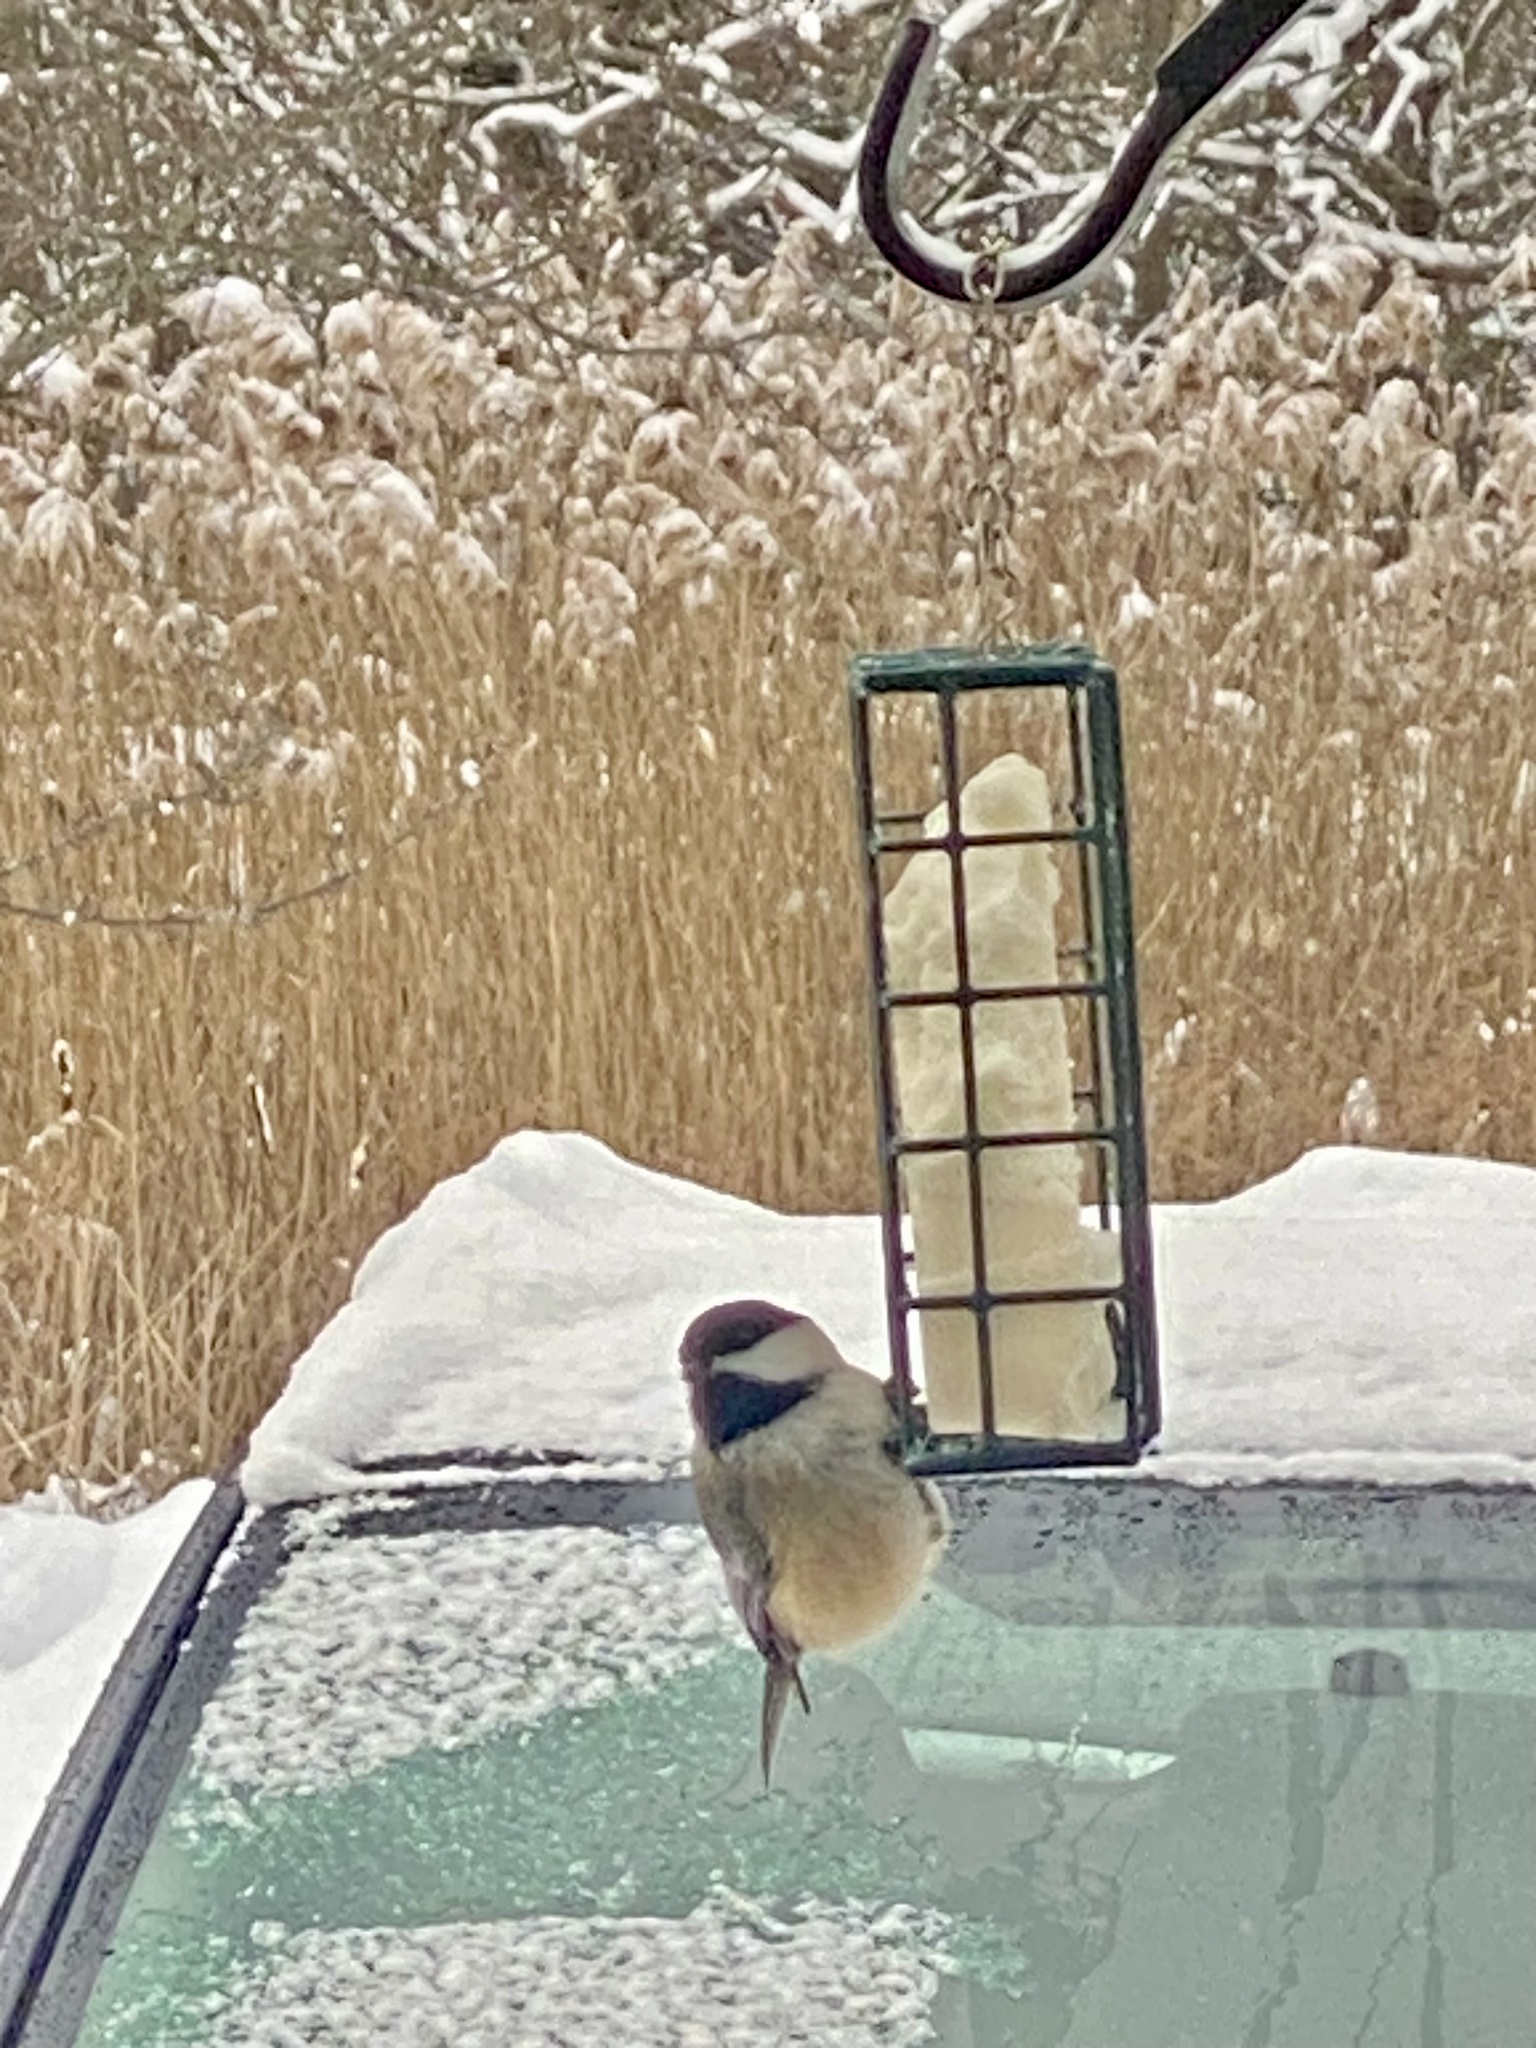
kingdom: Animalia
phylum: Chordata
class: Aves
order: Passeriformes
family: Paridae
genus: Poecile
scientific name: Poecile atricapillus
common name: Black-capped chickadee
